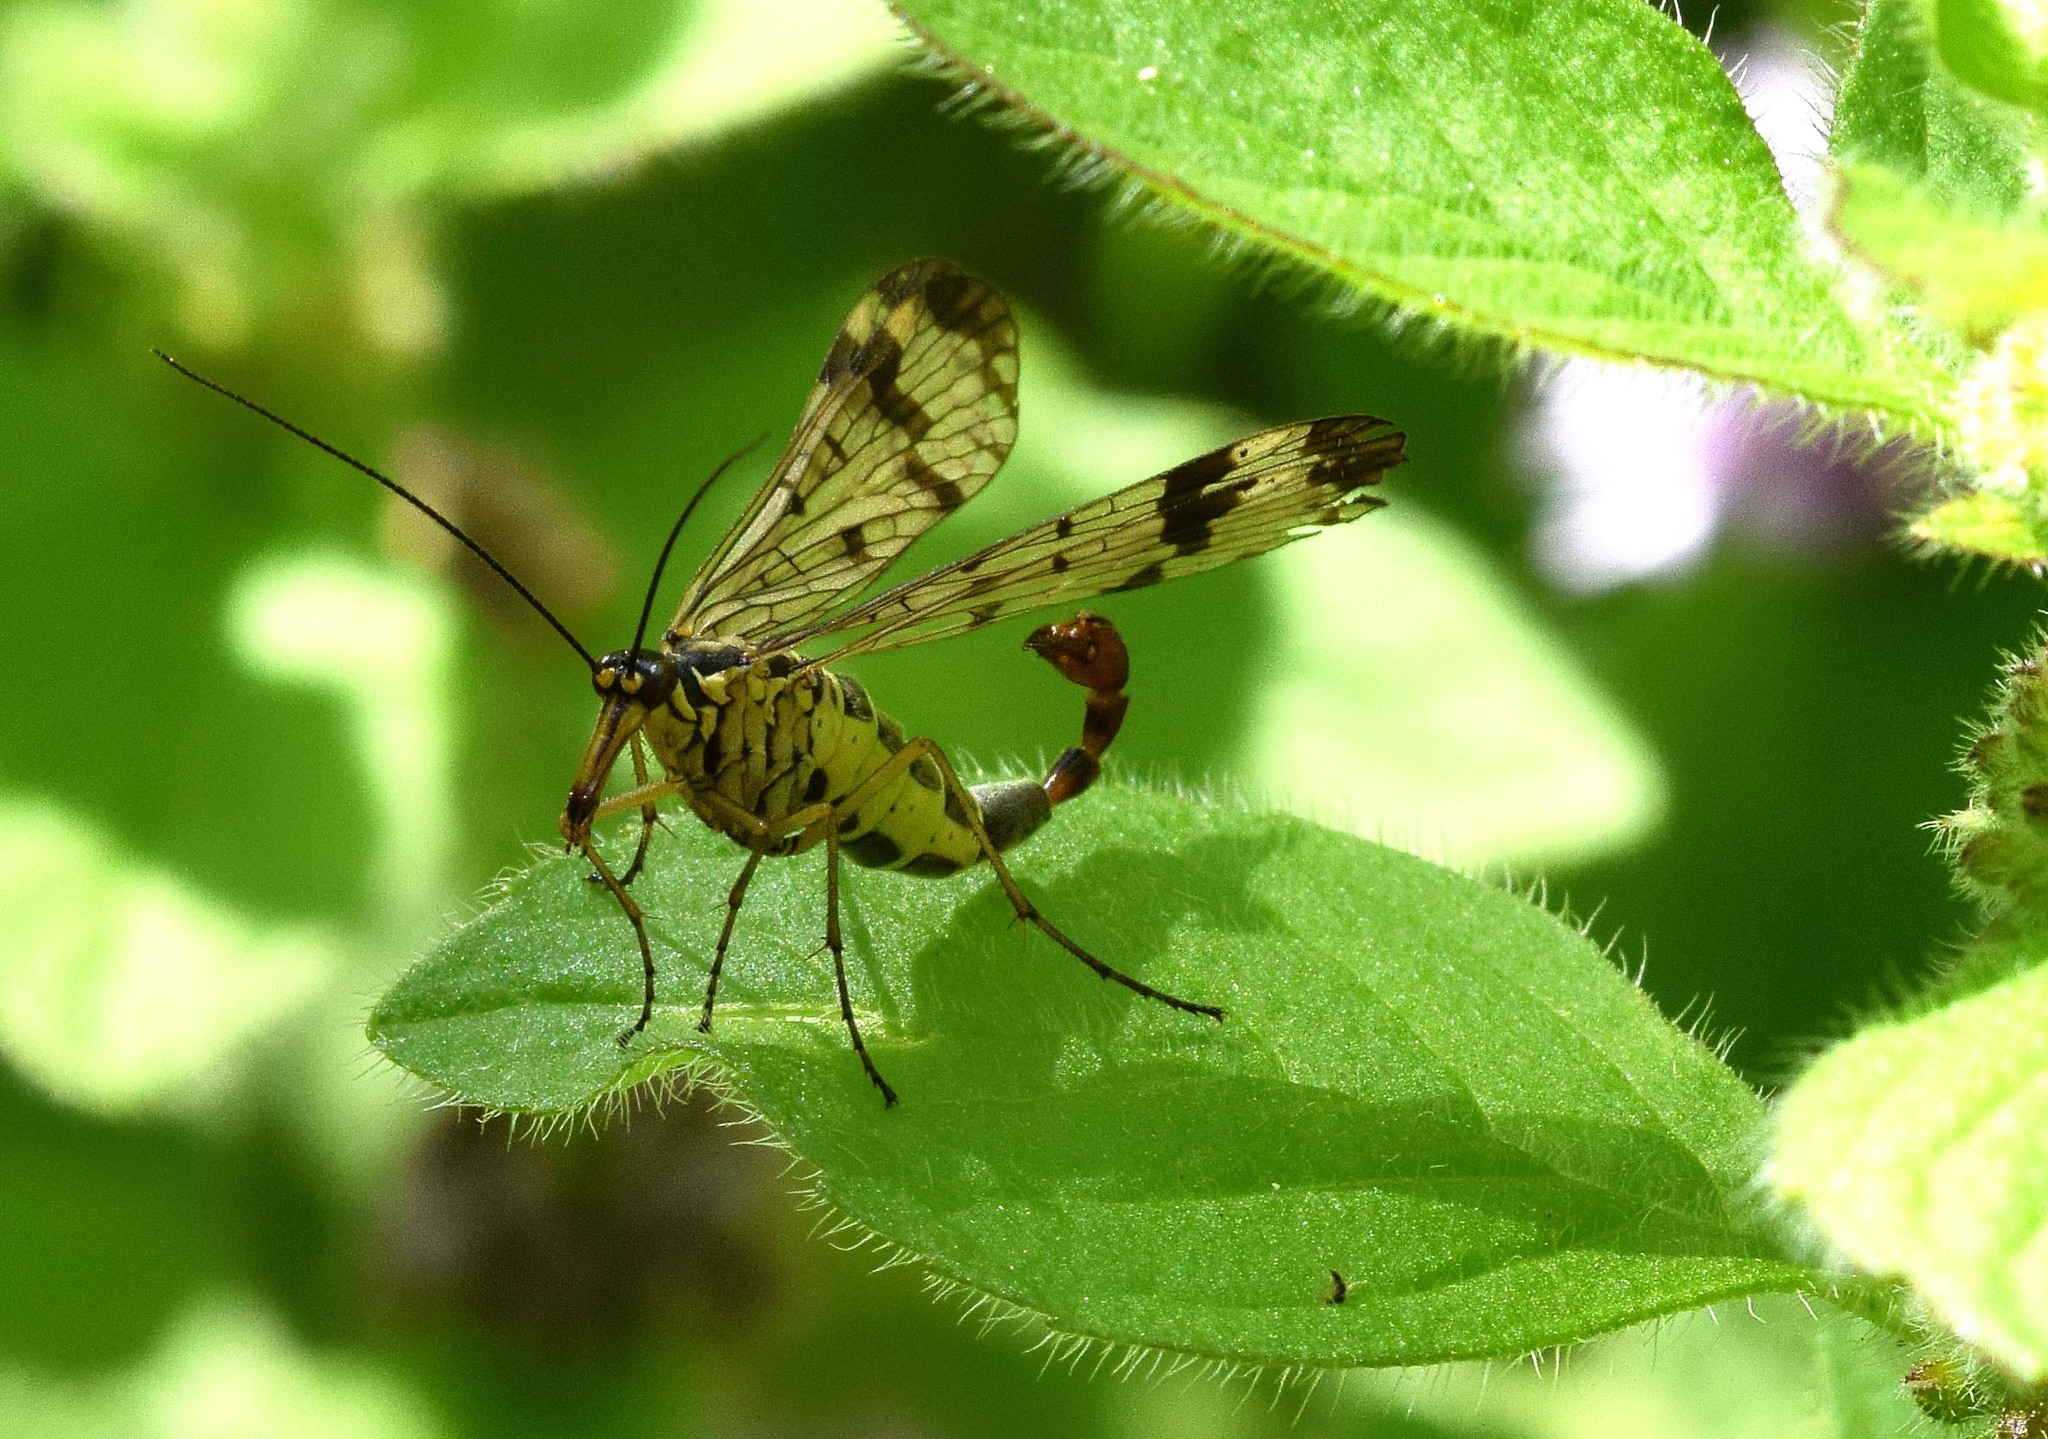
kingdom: Animalia
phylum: Arthropoda
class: Insecta
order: Mecoptera
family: Panorpidae
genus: Panorpa
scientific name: Panorpa communis
